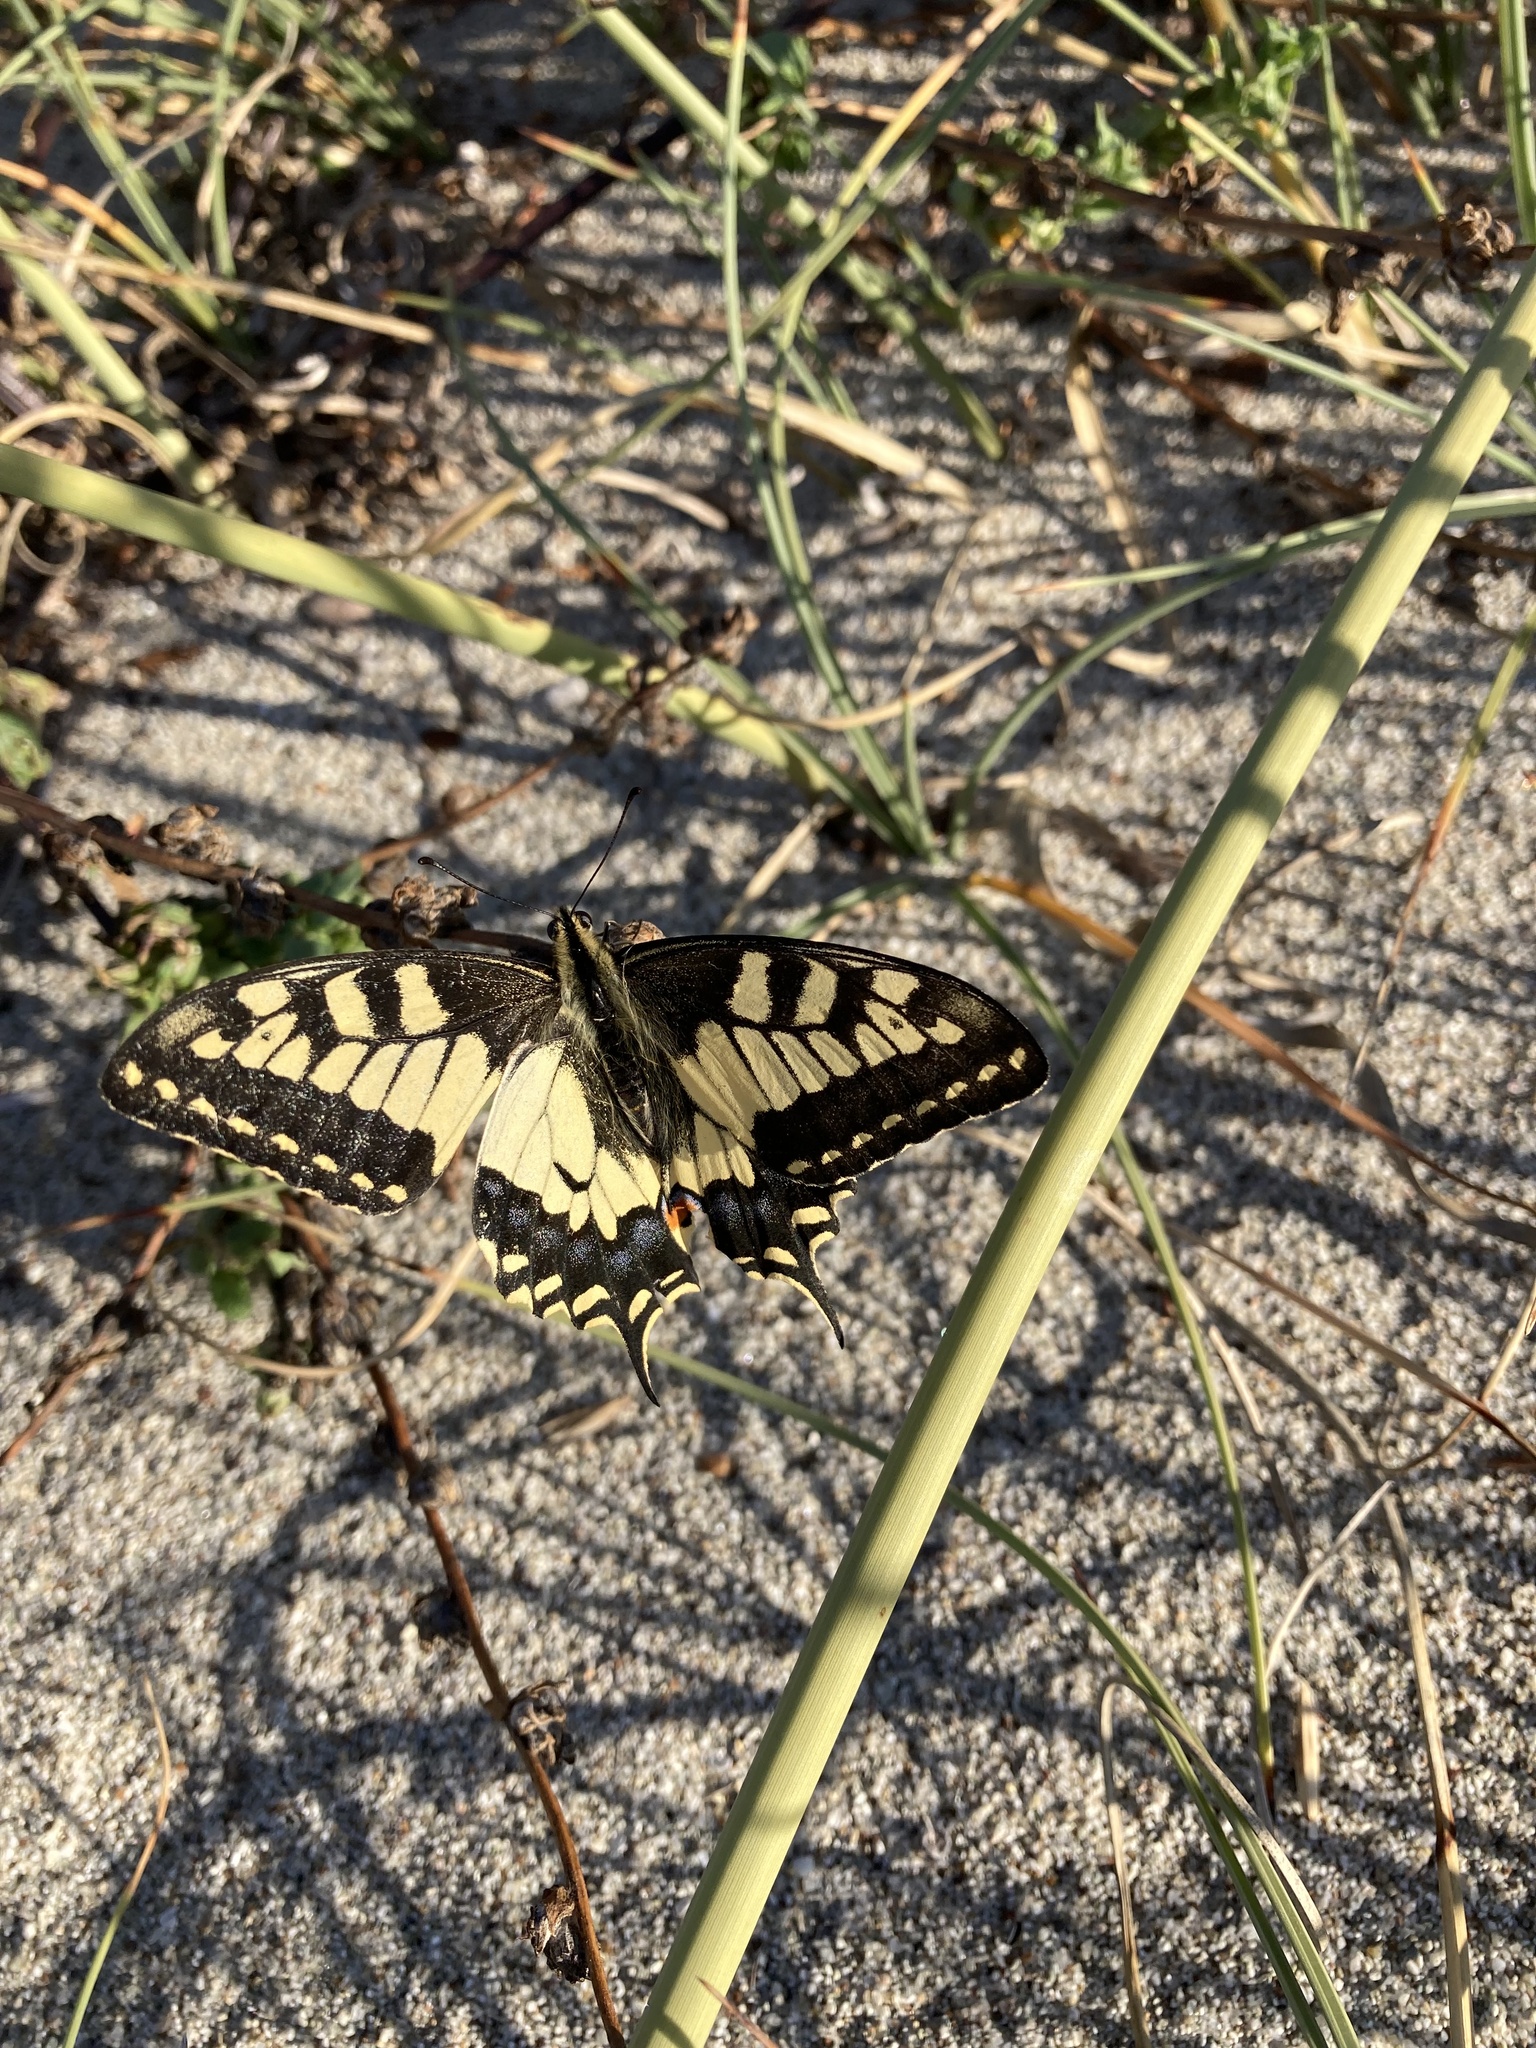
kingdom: Animalia
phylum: Arthropoda
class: Insecta
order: Lepidoptera
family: Papilionidae
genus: Papilio
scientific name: Papilio machaon
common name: Swallowtail
